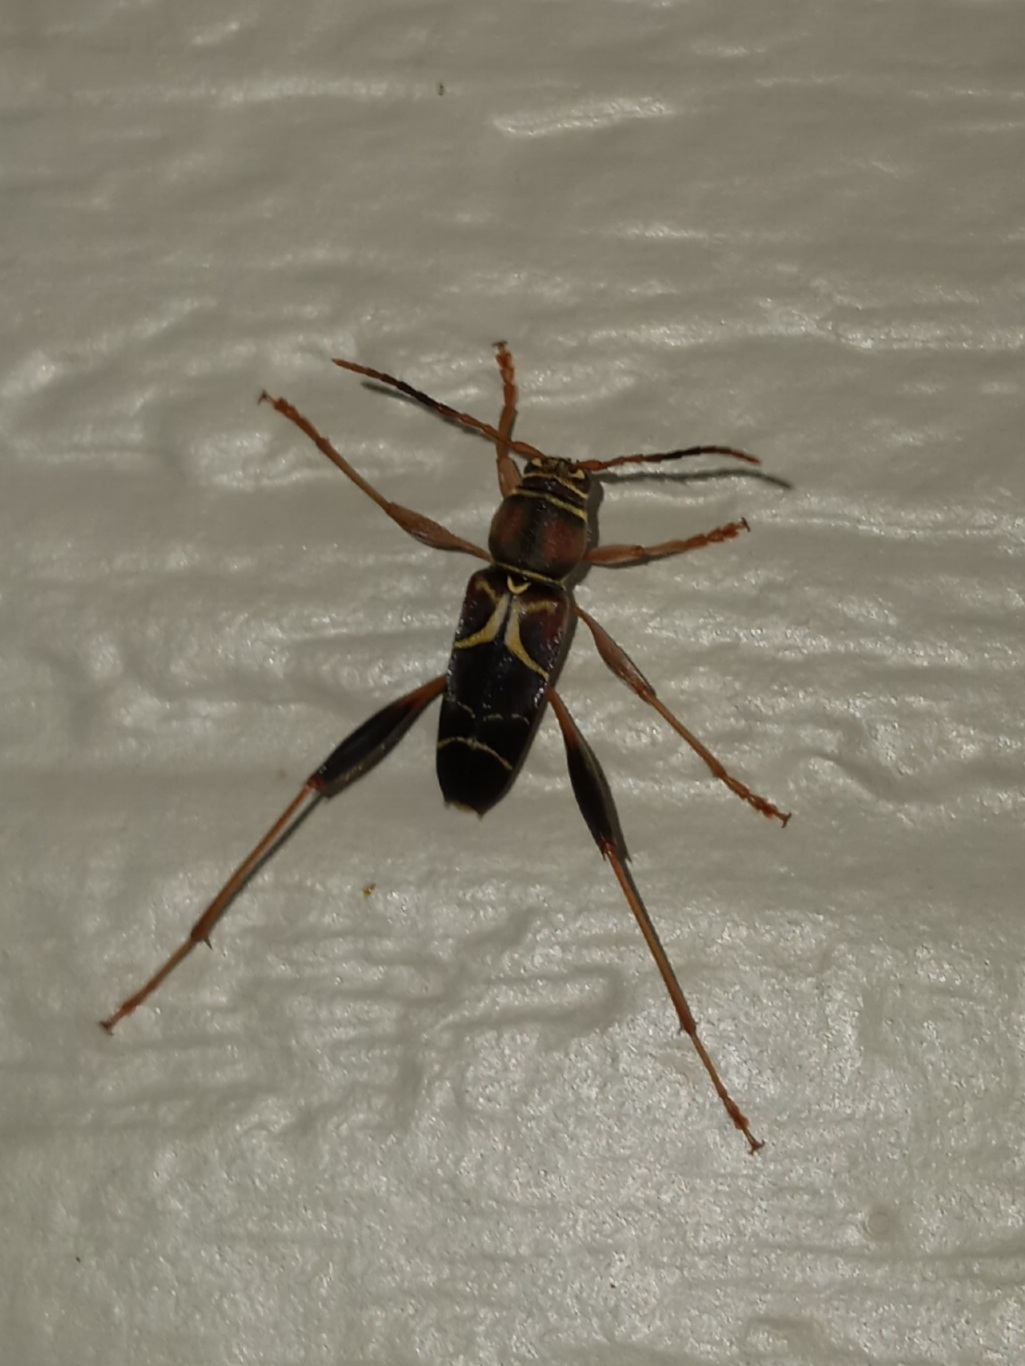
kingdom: Animalia
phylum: Arthropoda
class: Insecta
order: Coleoptera
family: Cerambycidae
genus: Neoclytus
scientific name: Neoclytus mucronatus
